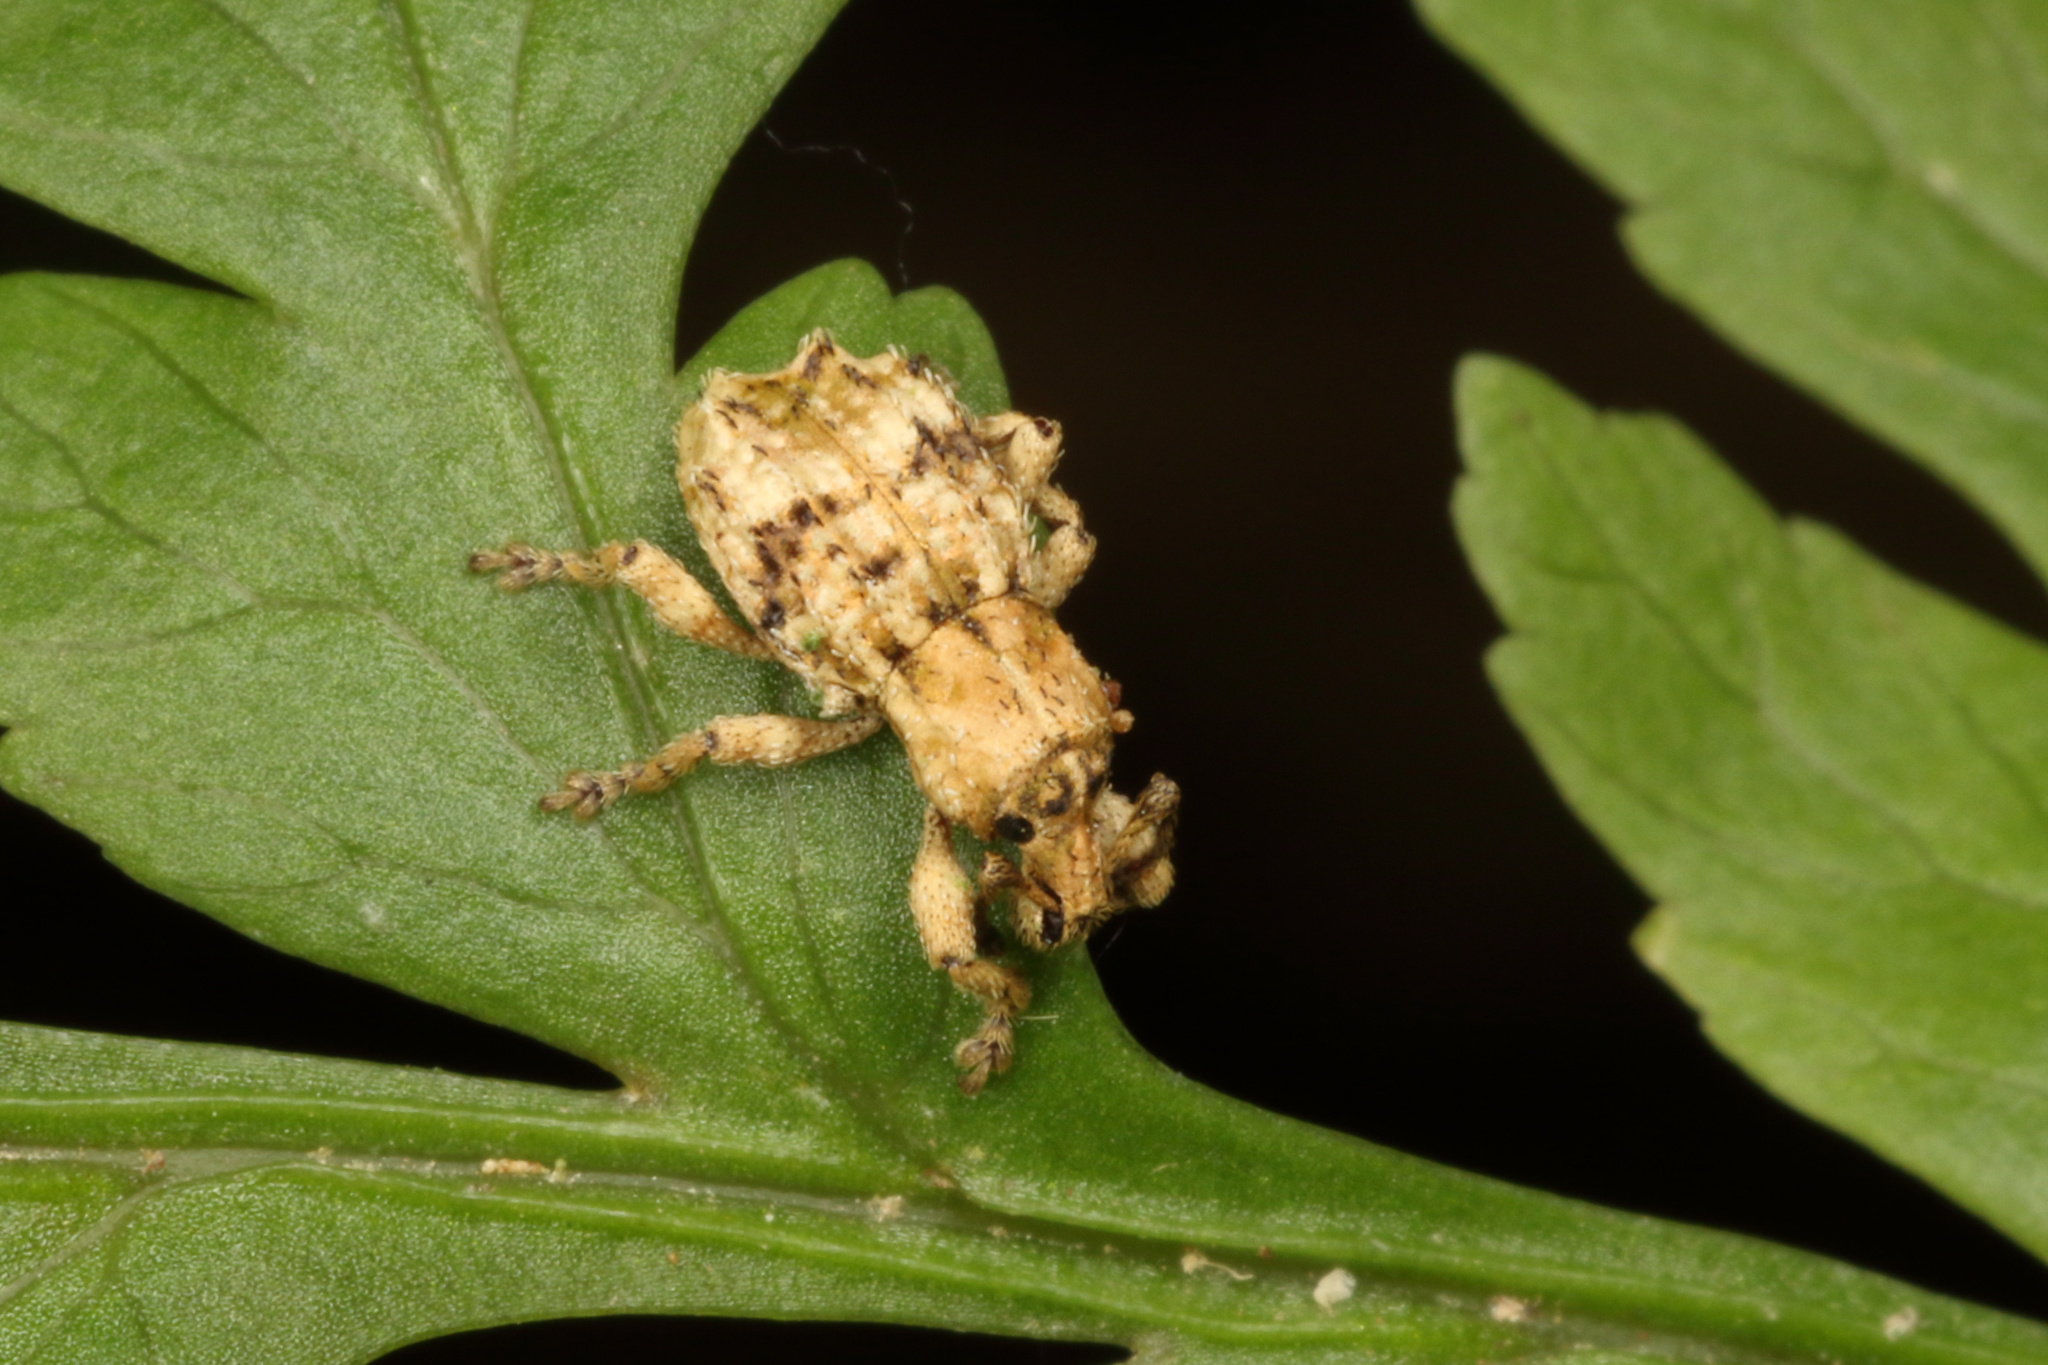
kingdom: Animalia
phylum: Arthropoda
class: Insecta
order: Coleoptera
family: Curculionidae
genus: Brachyolus
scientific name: Brachyolus punctatus
